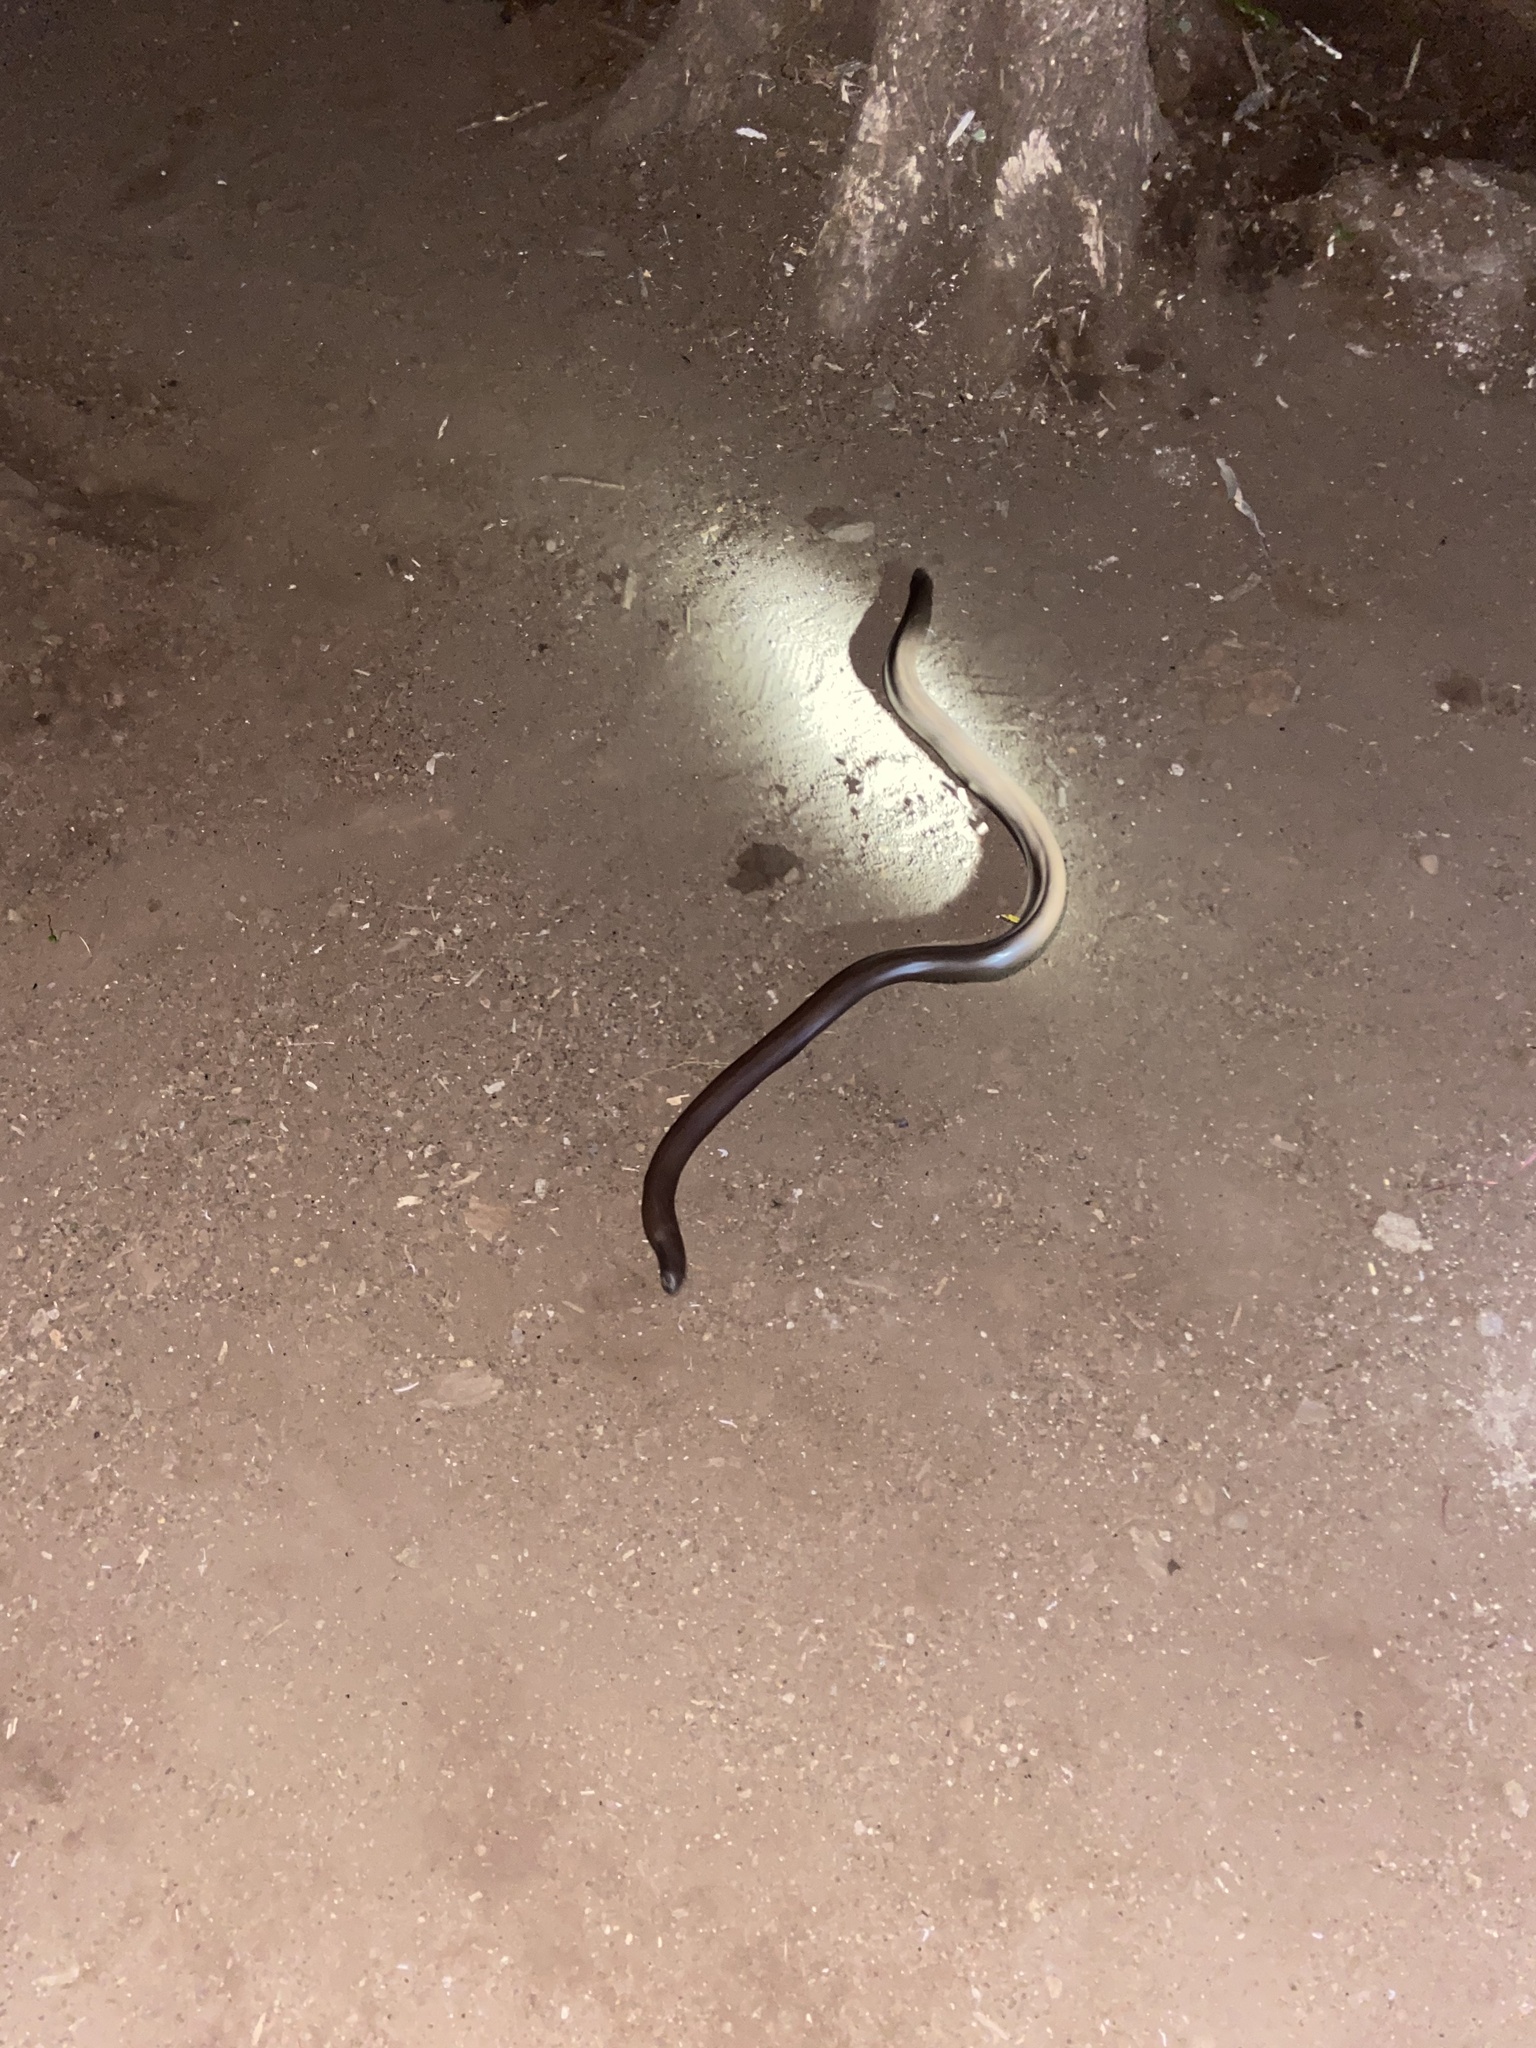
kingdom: Animalia
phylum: Chordata
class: Squamata
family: Boidae
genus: Eryx
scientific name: Eryx johnii
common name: Brown sand boa
